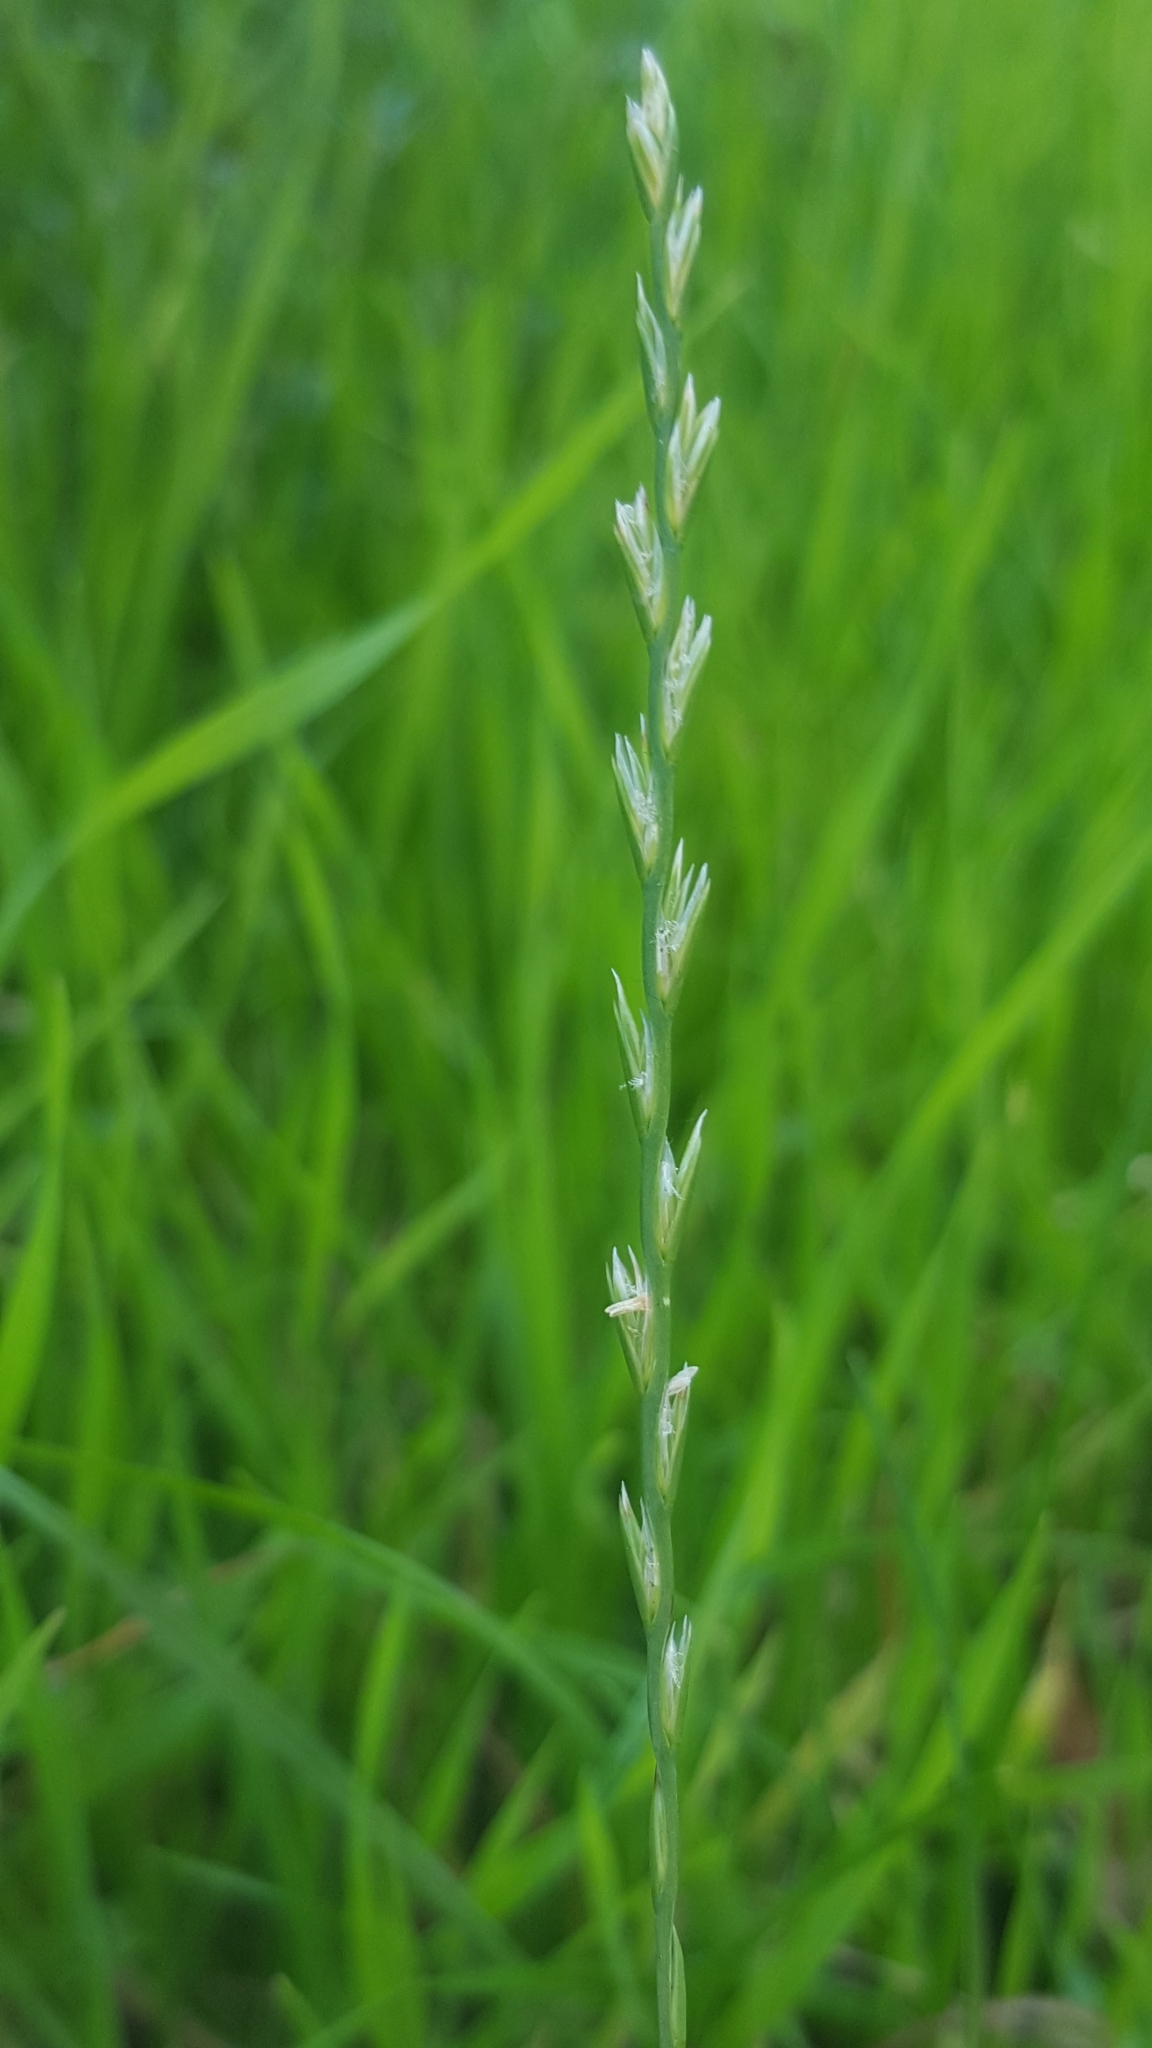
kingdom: Plantae
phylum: Tracheophyta
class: Liliopsida
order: Poales
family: Poaceae
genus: Lolium
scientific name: Lolium perenne
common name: Perennial ryegrass
